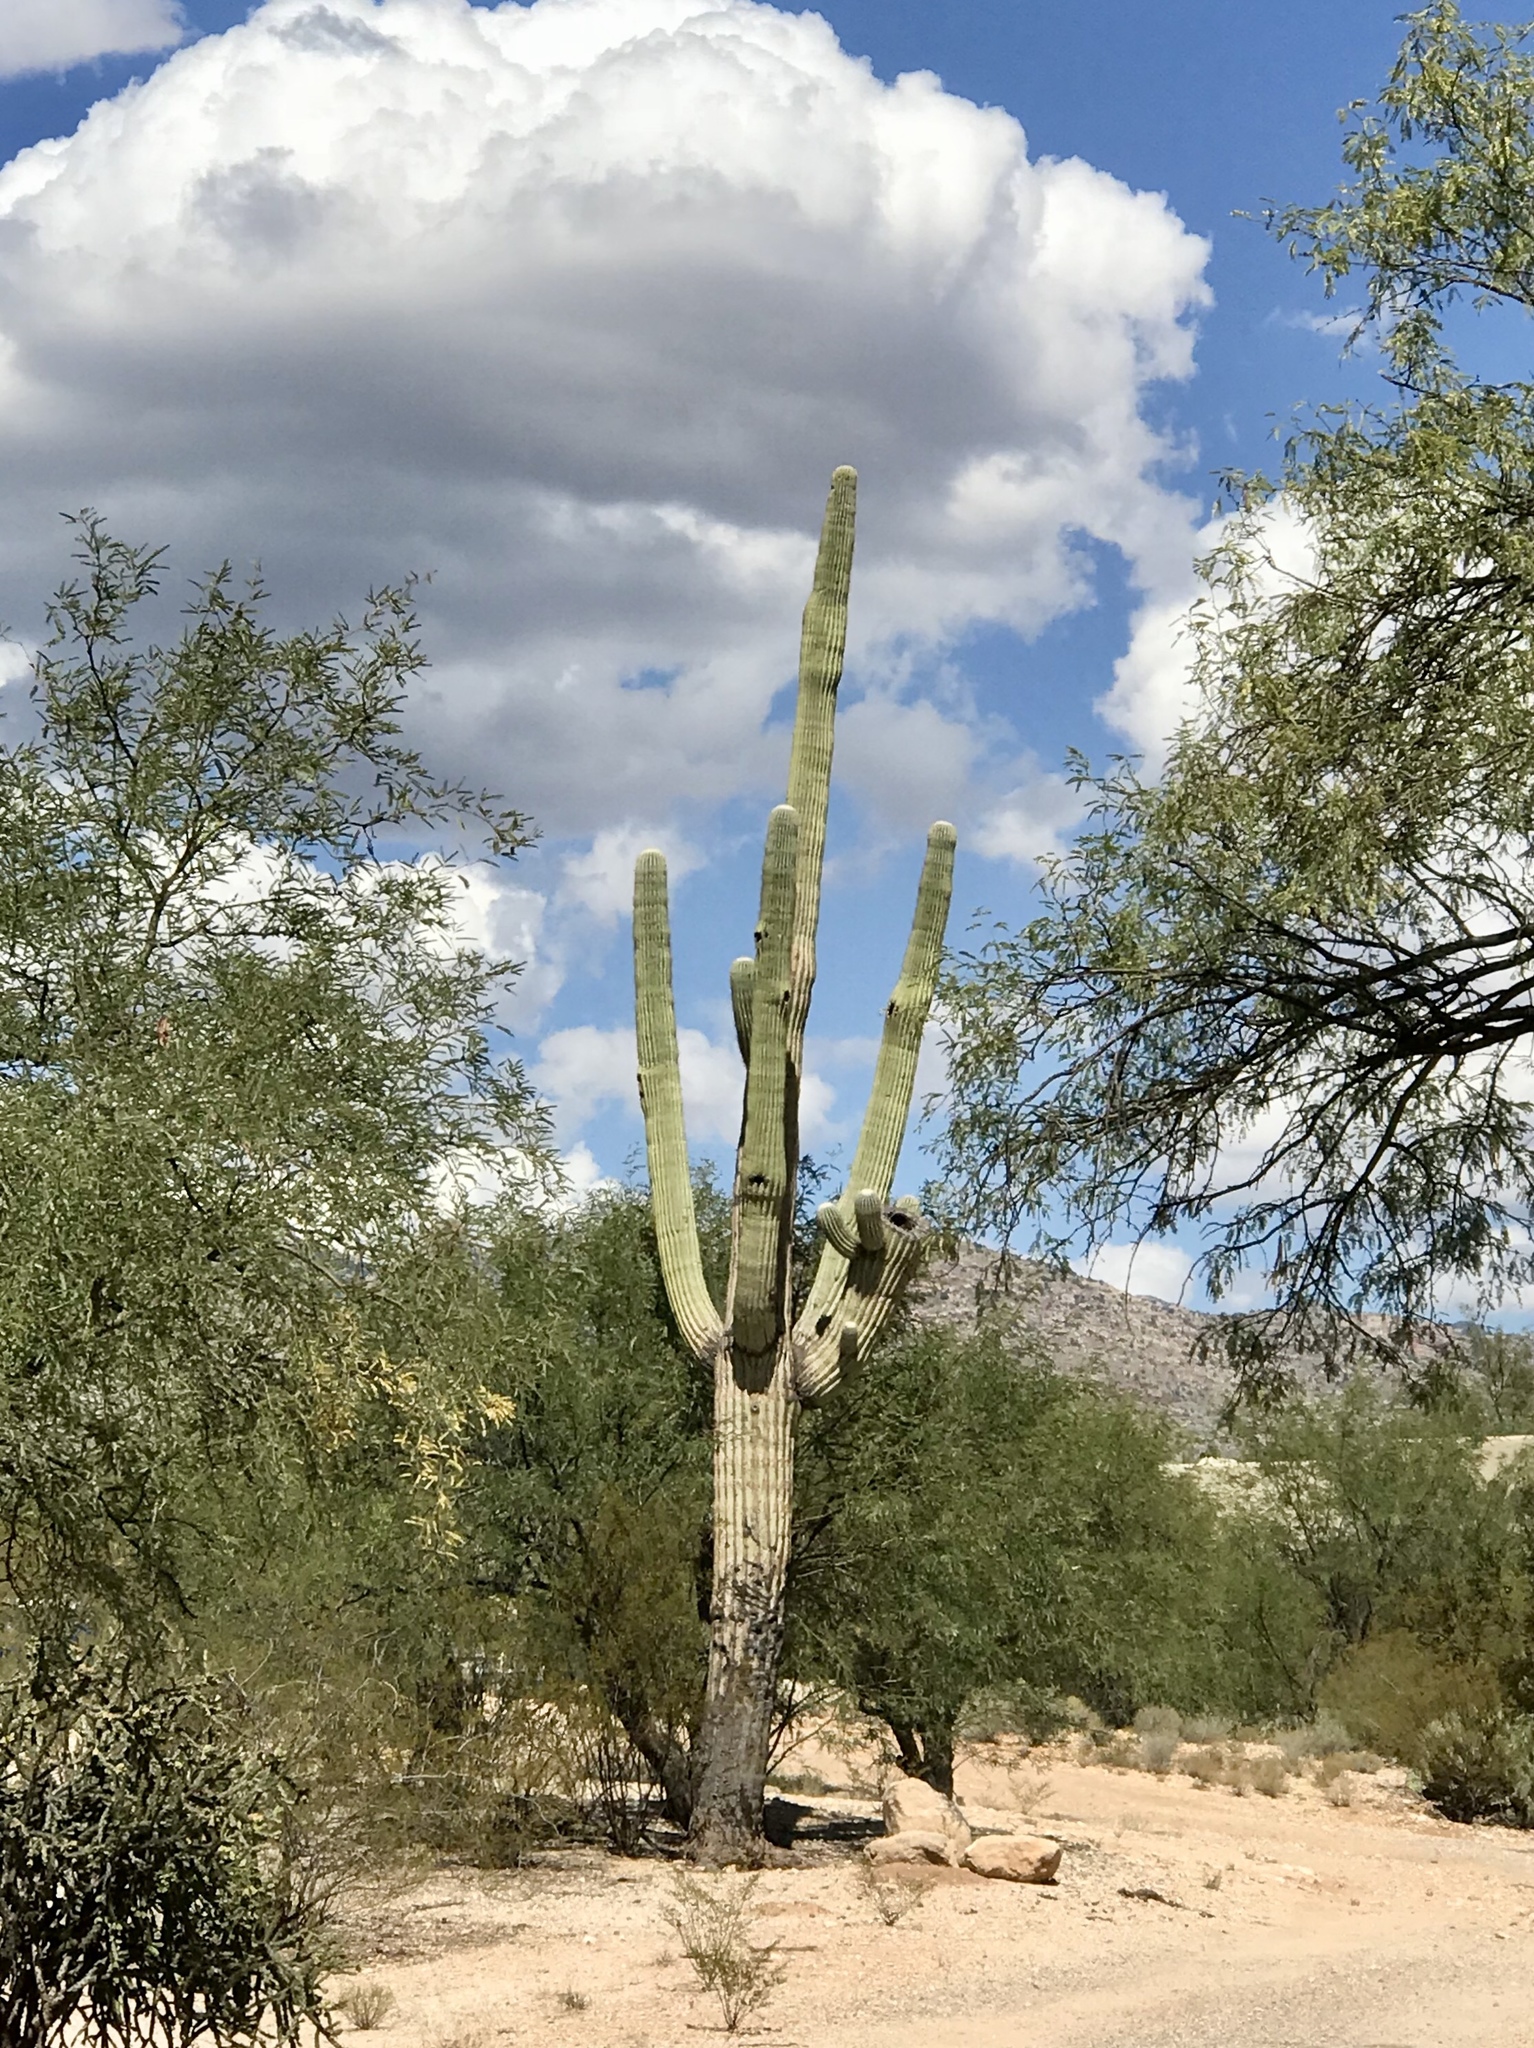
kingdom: Plantae
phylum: Tracheophyta
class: Magnoliopsida
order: Caryophyllales
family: Cactaceae
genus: Carnegiea
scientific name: Carnegiea gigantea
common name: Saguaro
